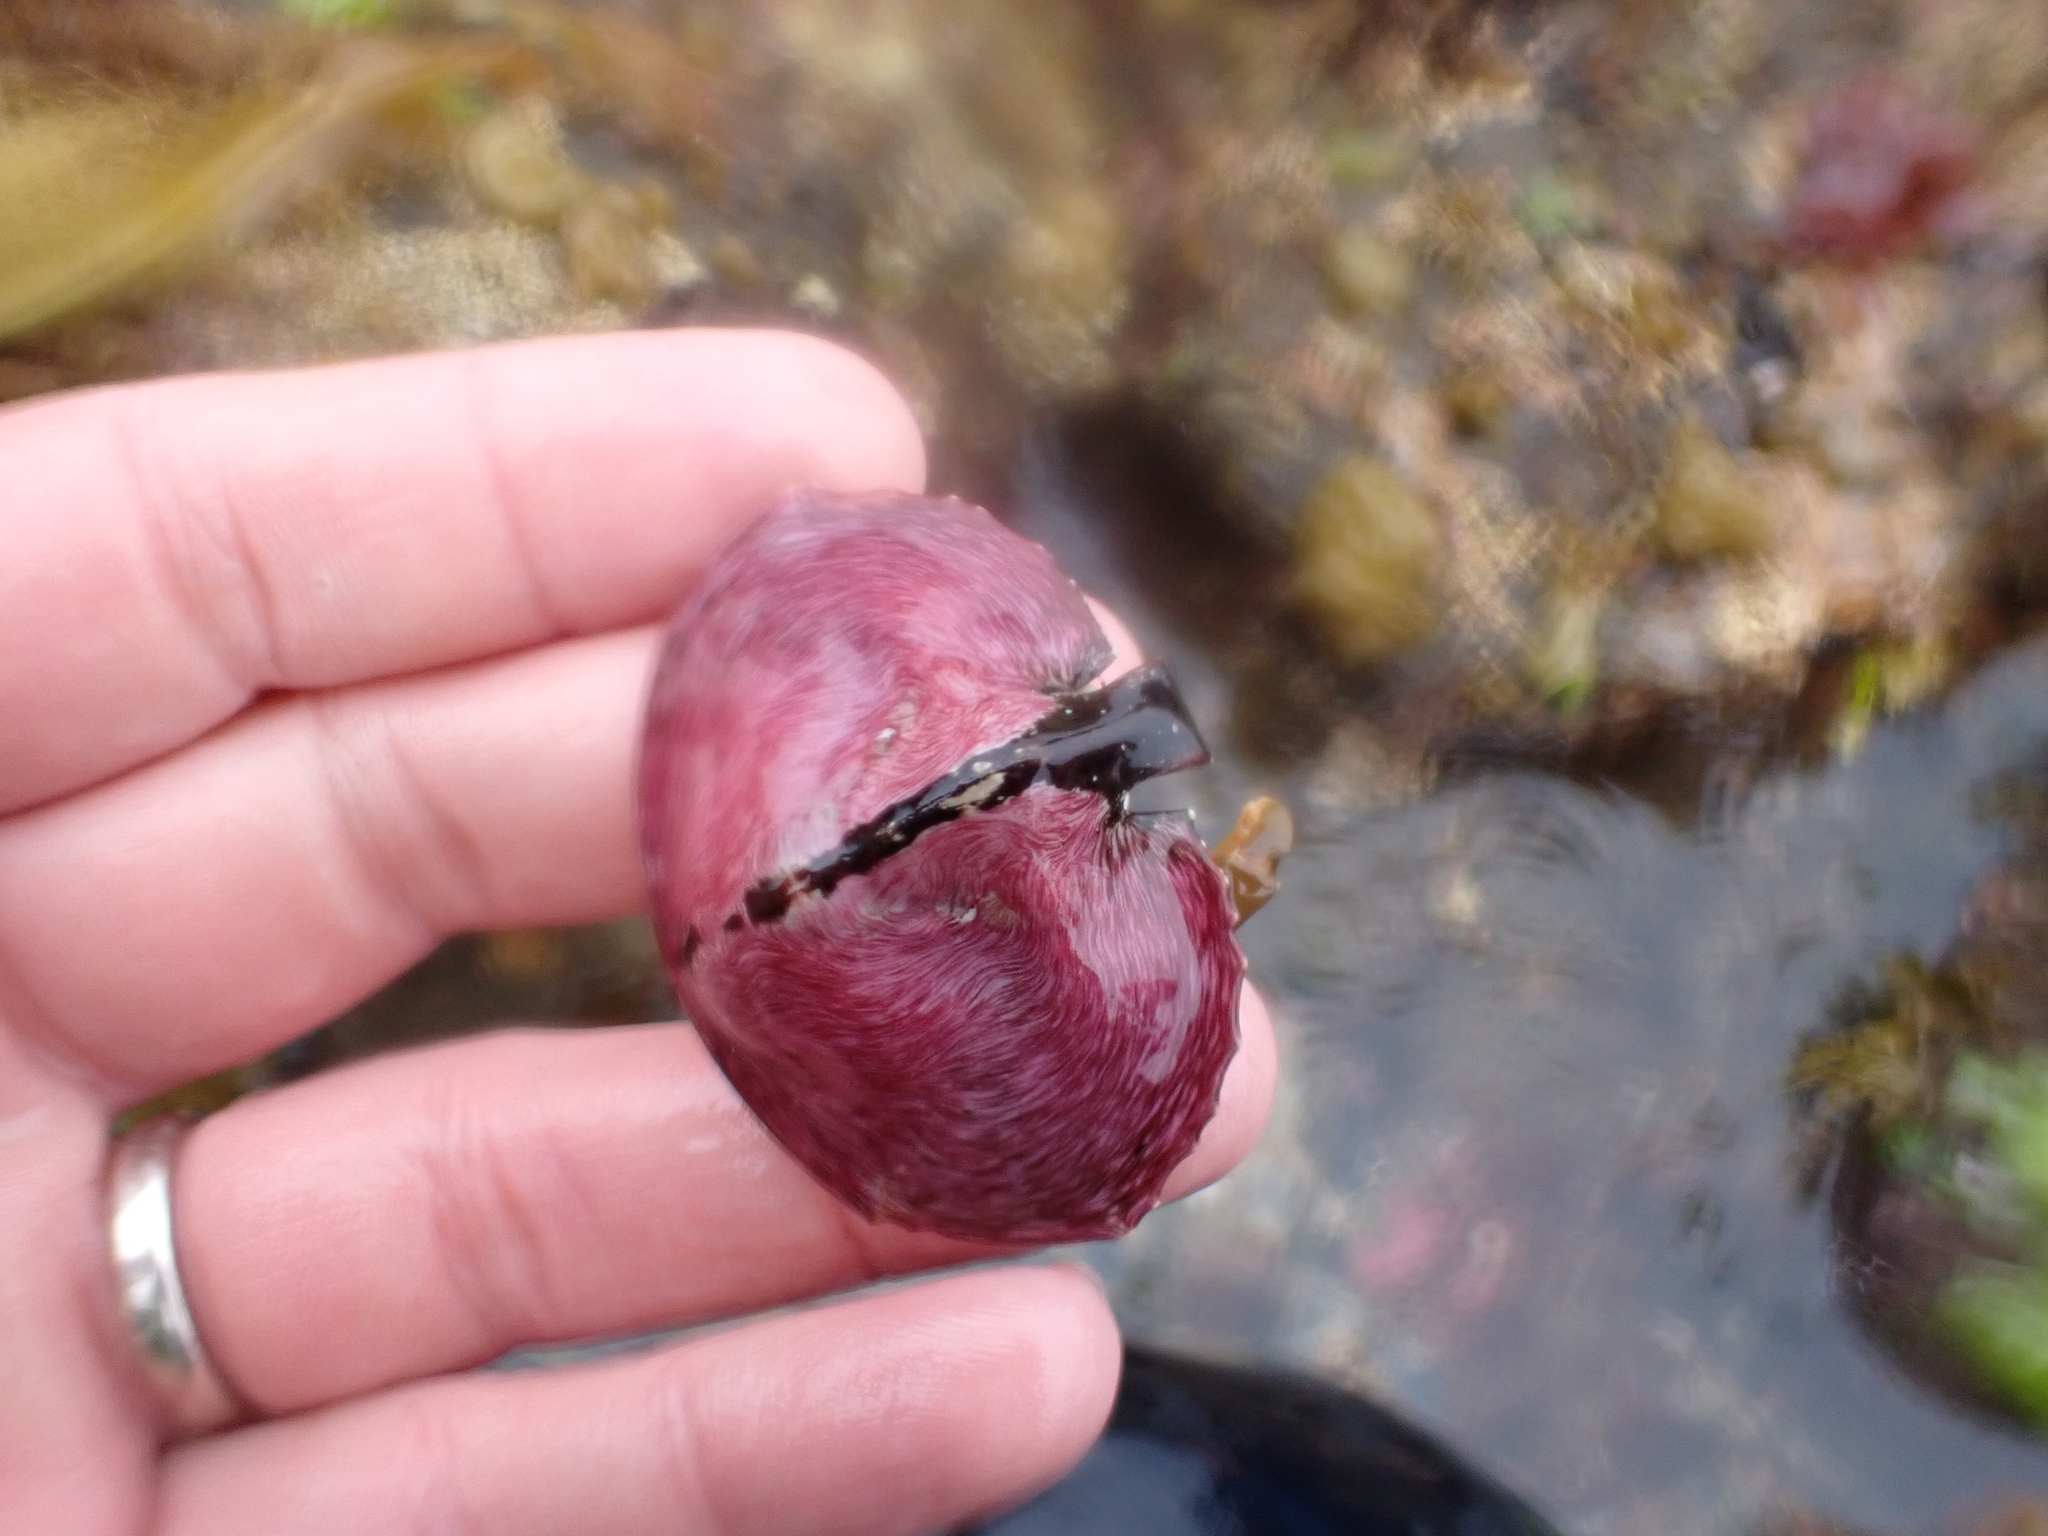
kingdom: Animalia
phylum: Arthropoda
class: Malacostraca
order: Decapoda
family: Lithodidae
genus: Cryptolithodes
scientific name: Cryptolithodes sitchensis
